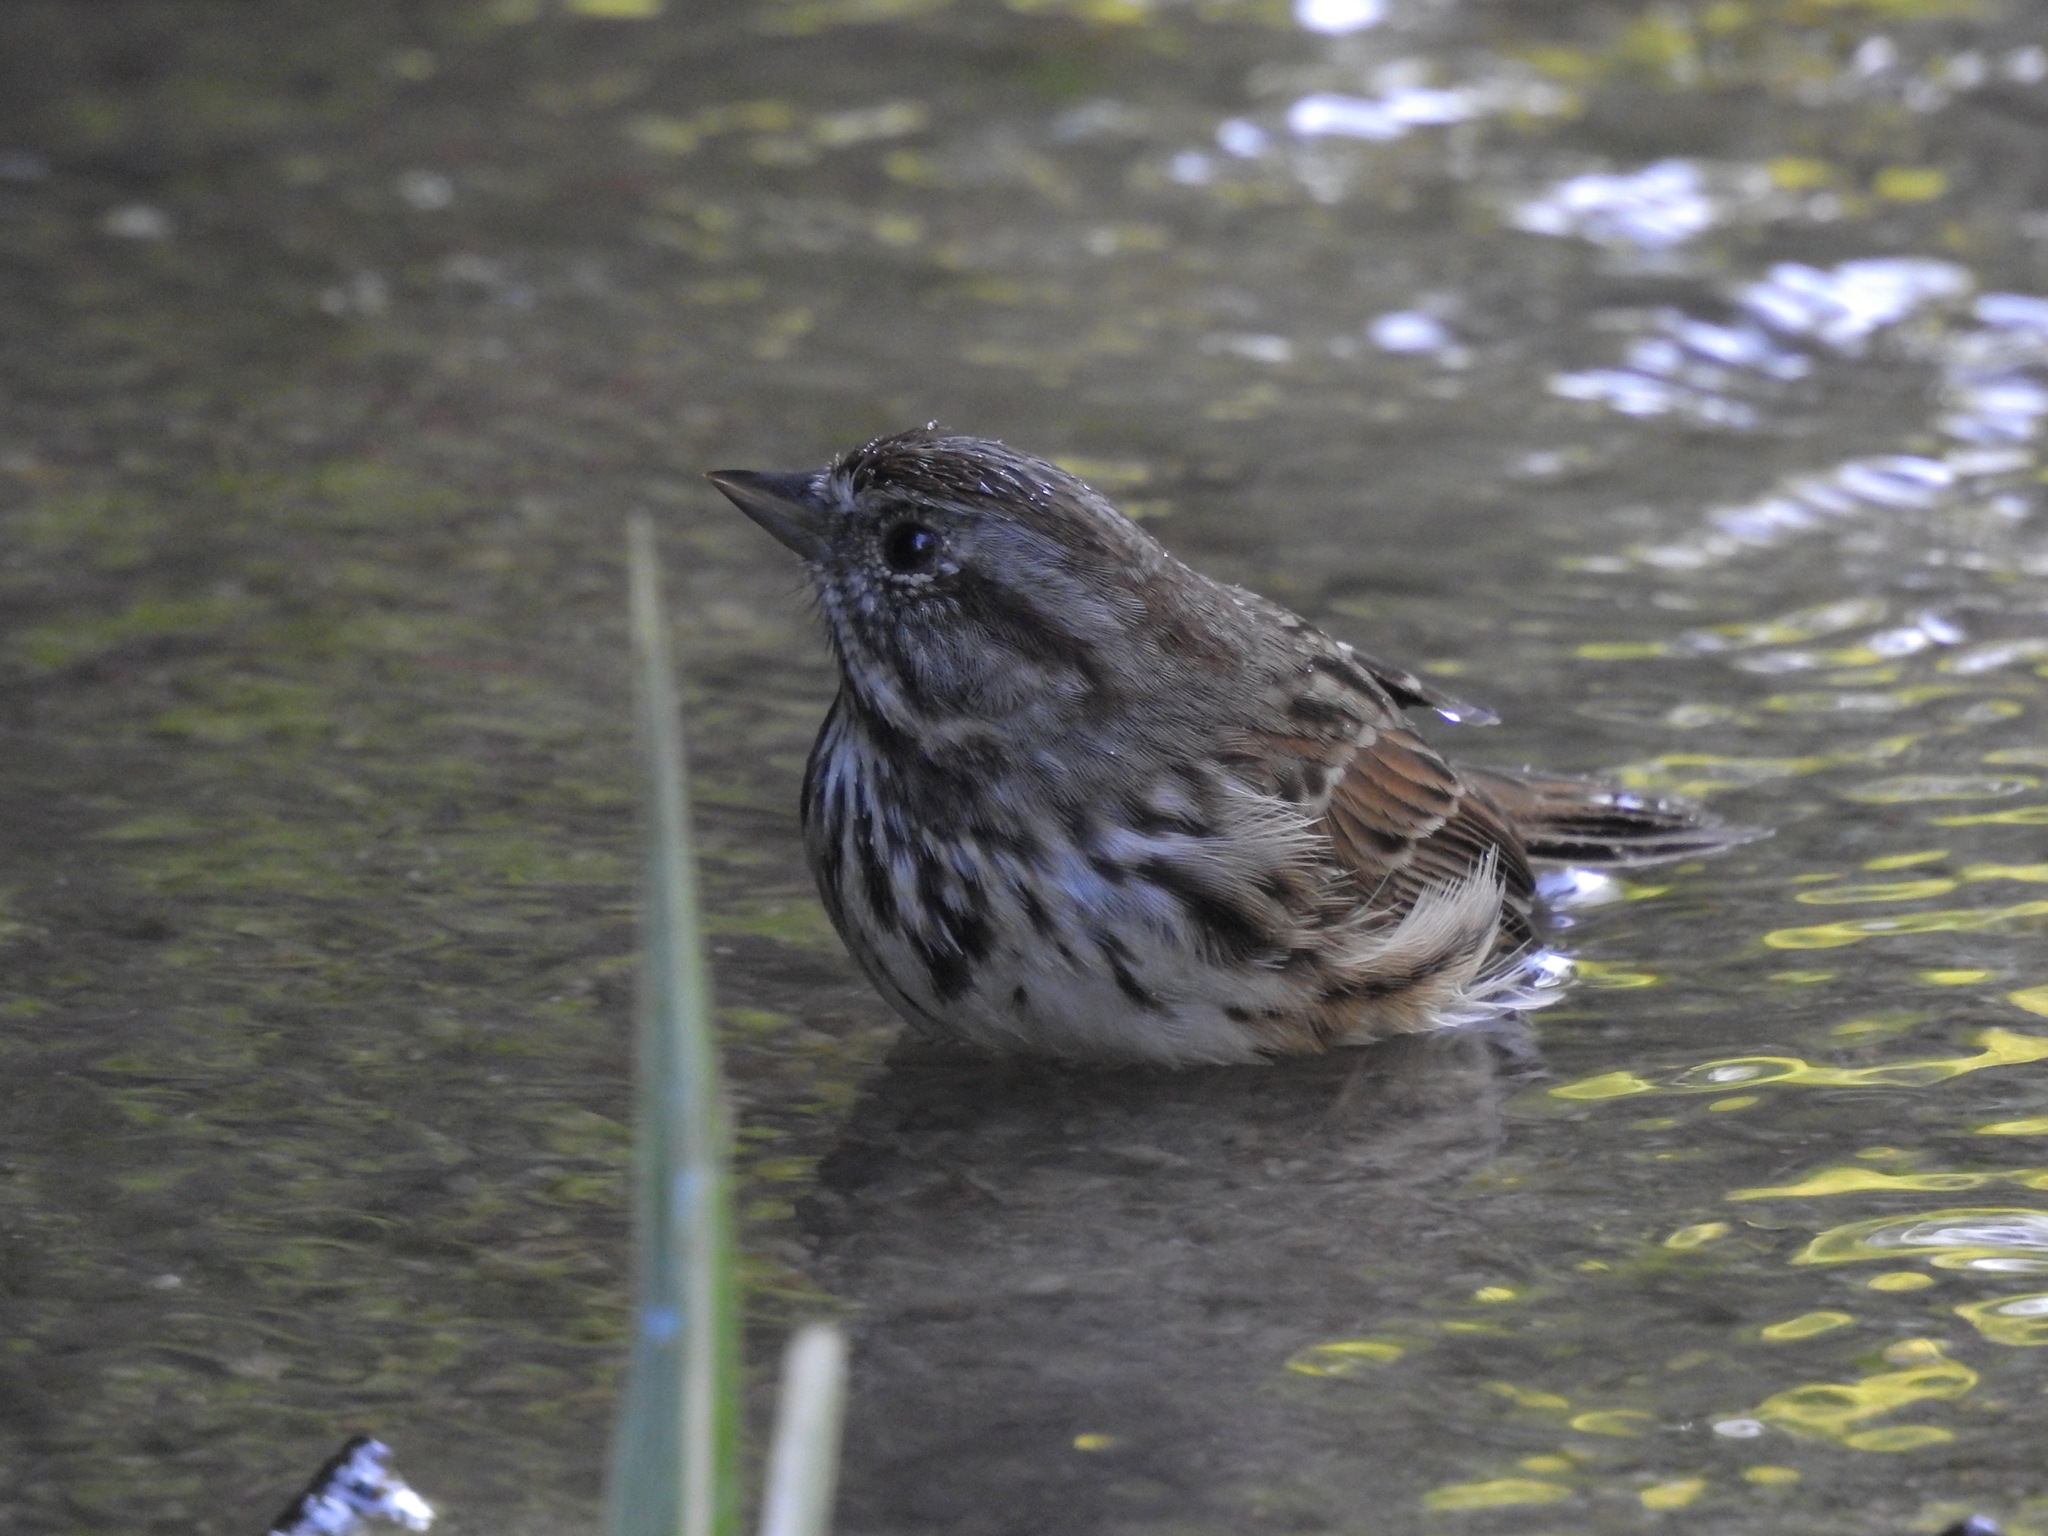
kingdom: Animalia
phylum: Chordata
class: Aves
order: Passeriformes
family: Passerellidae
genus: Melospiza
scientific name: Melospiza melodia
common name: Song sparrow
